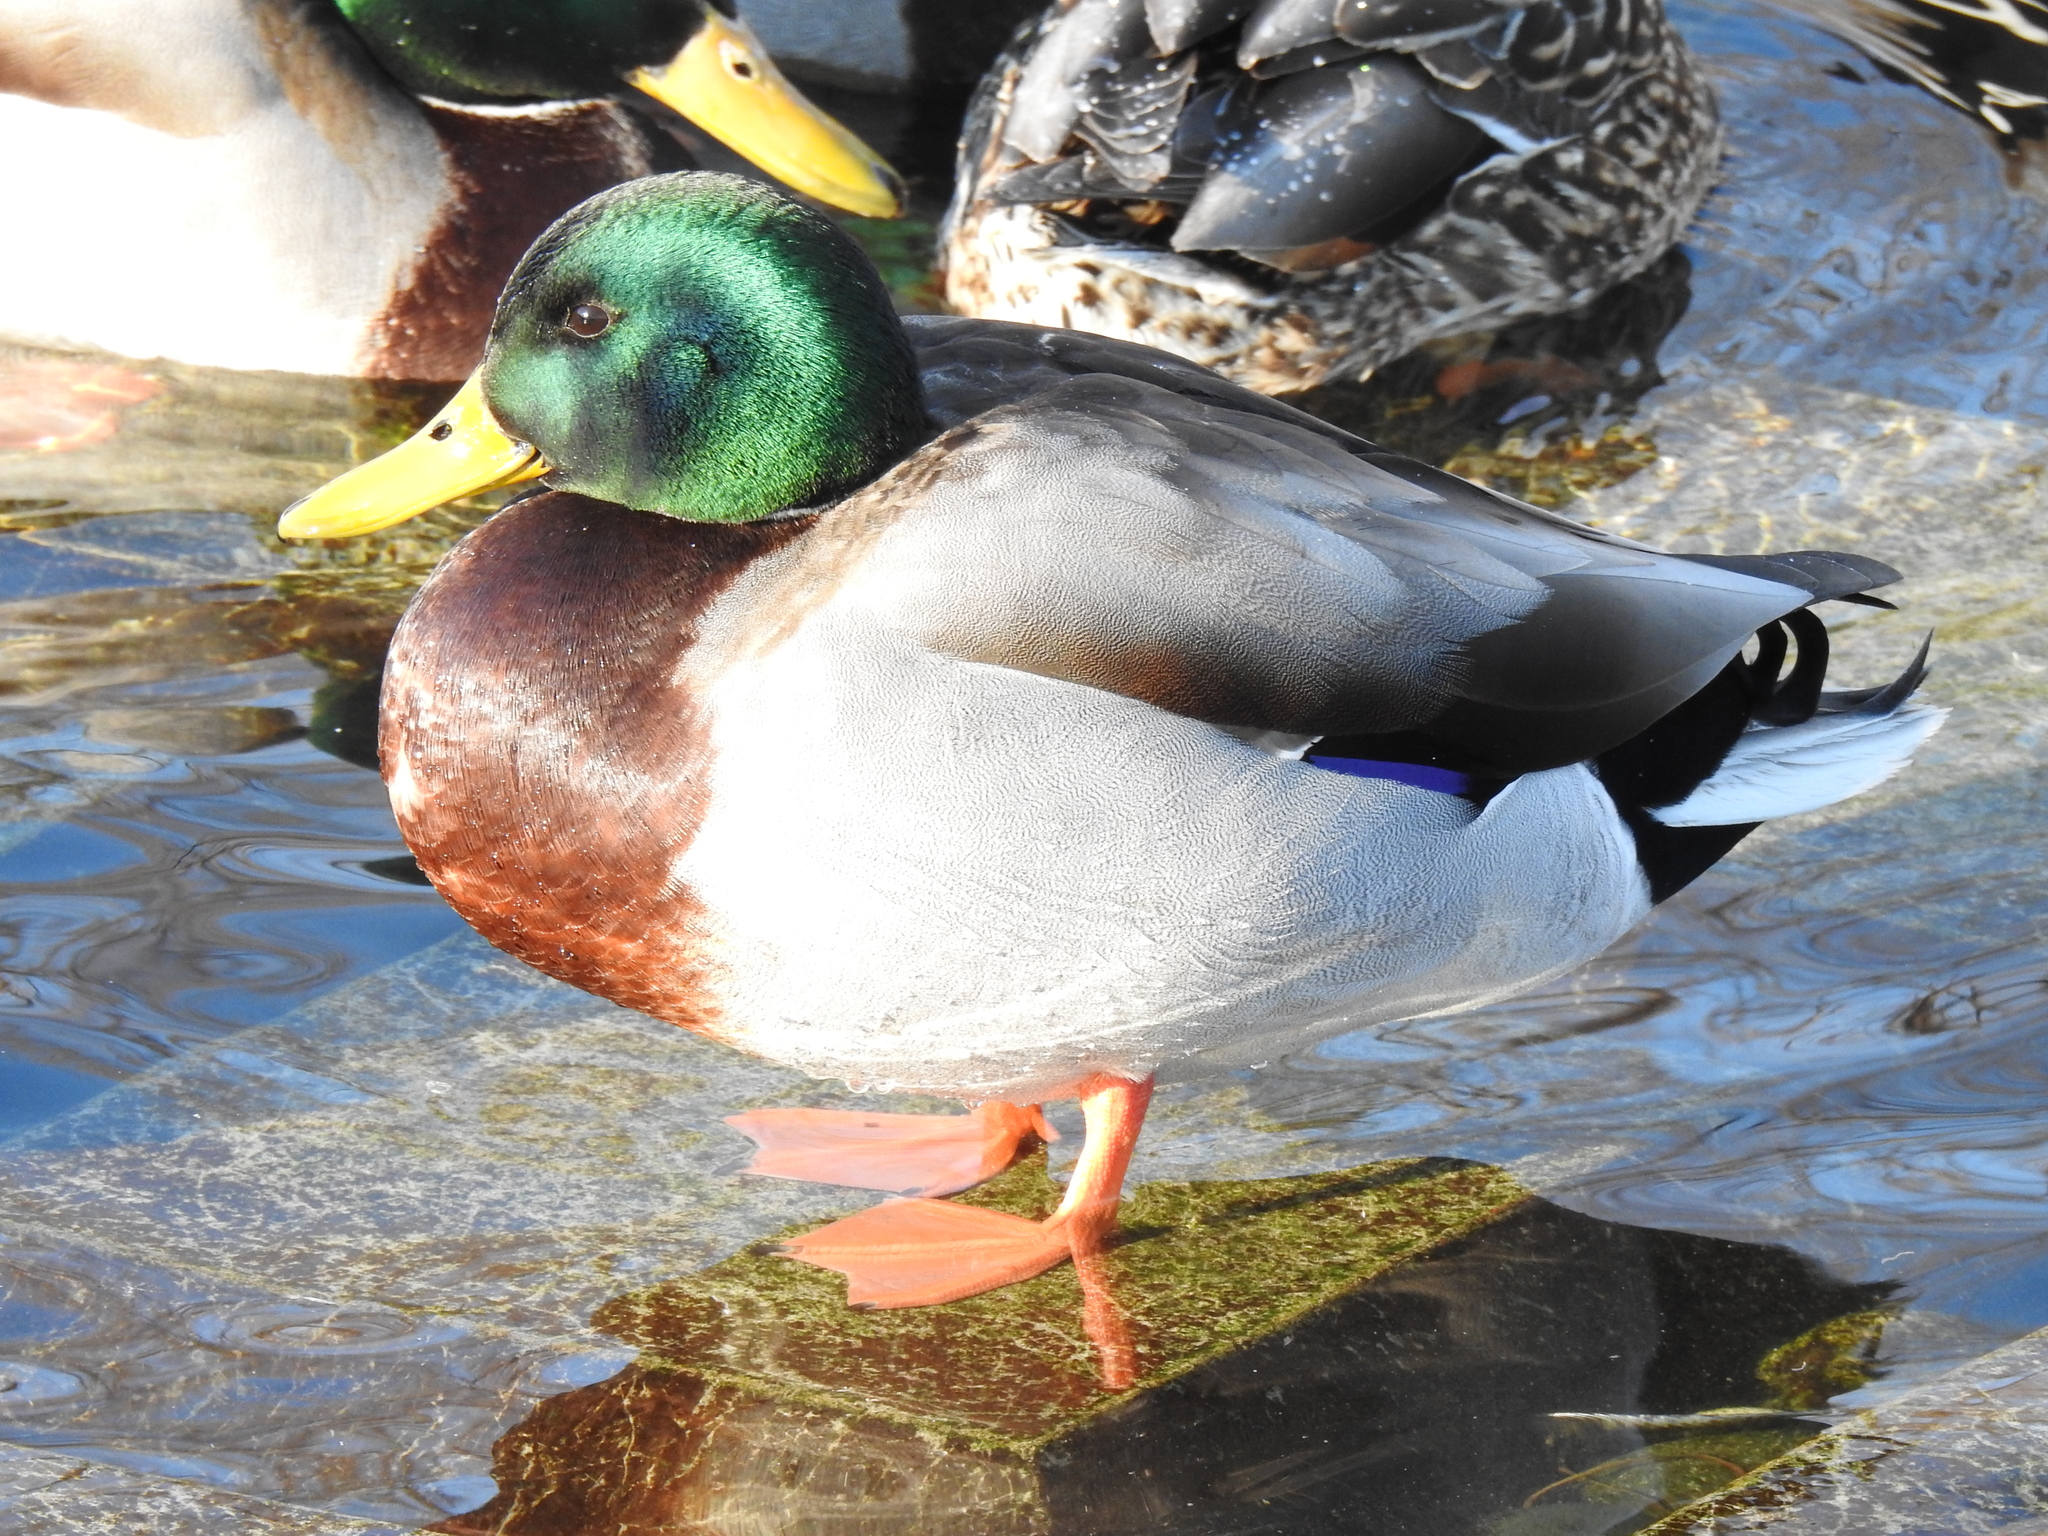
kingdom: Animalia
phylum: Chordata
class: Aves
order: Anseriformes
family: Anatidae
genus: Anas
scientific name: Anas platyrhynchos
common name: Mallard
